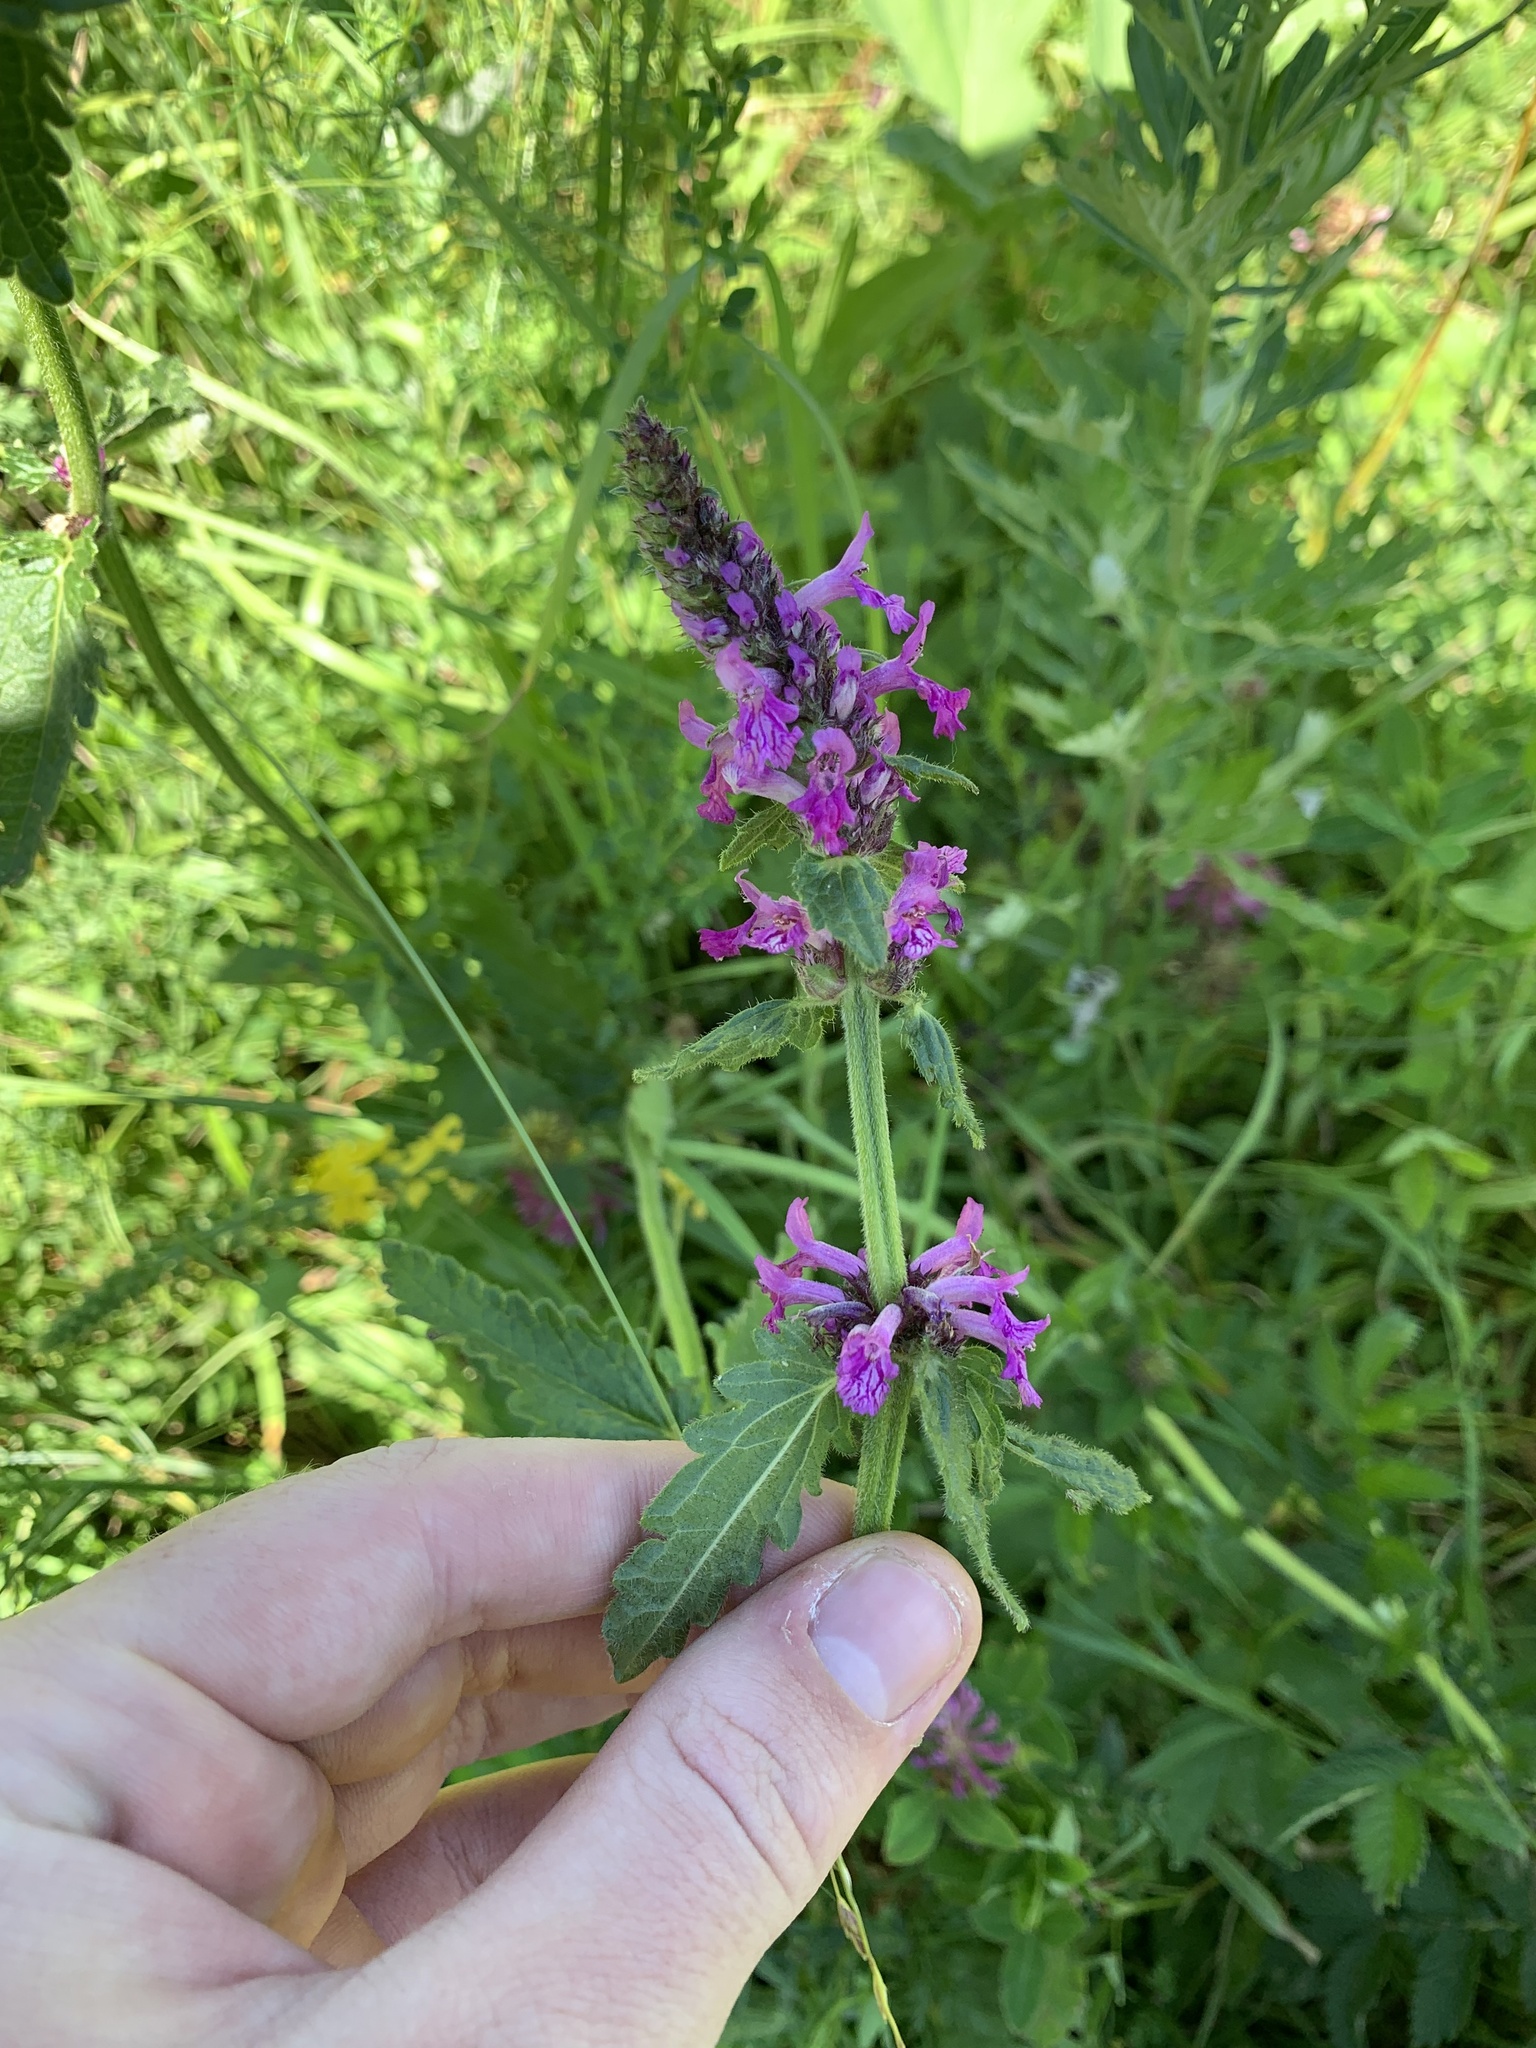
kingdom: Plantae
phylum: Tracheophyta
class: Magnoliopsida
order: Lamiales
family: Lamiaceae
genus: Betonica
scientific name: Betonica officinalis
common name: Bishop's-wort
